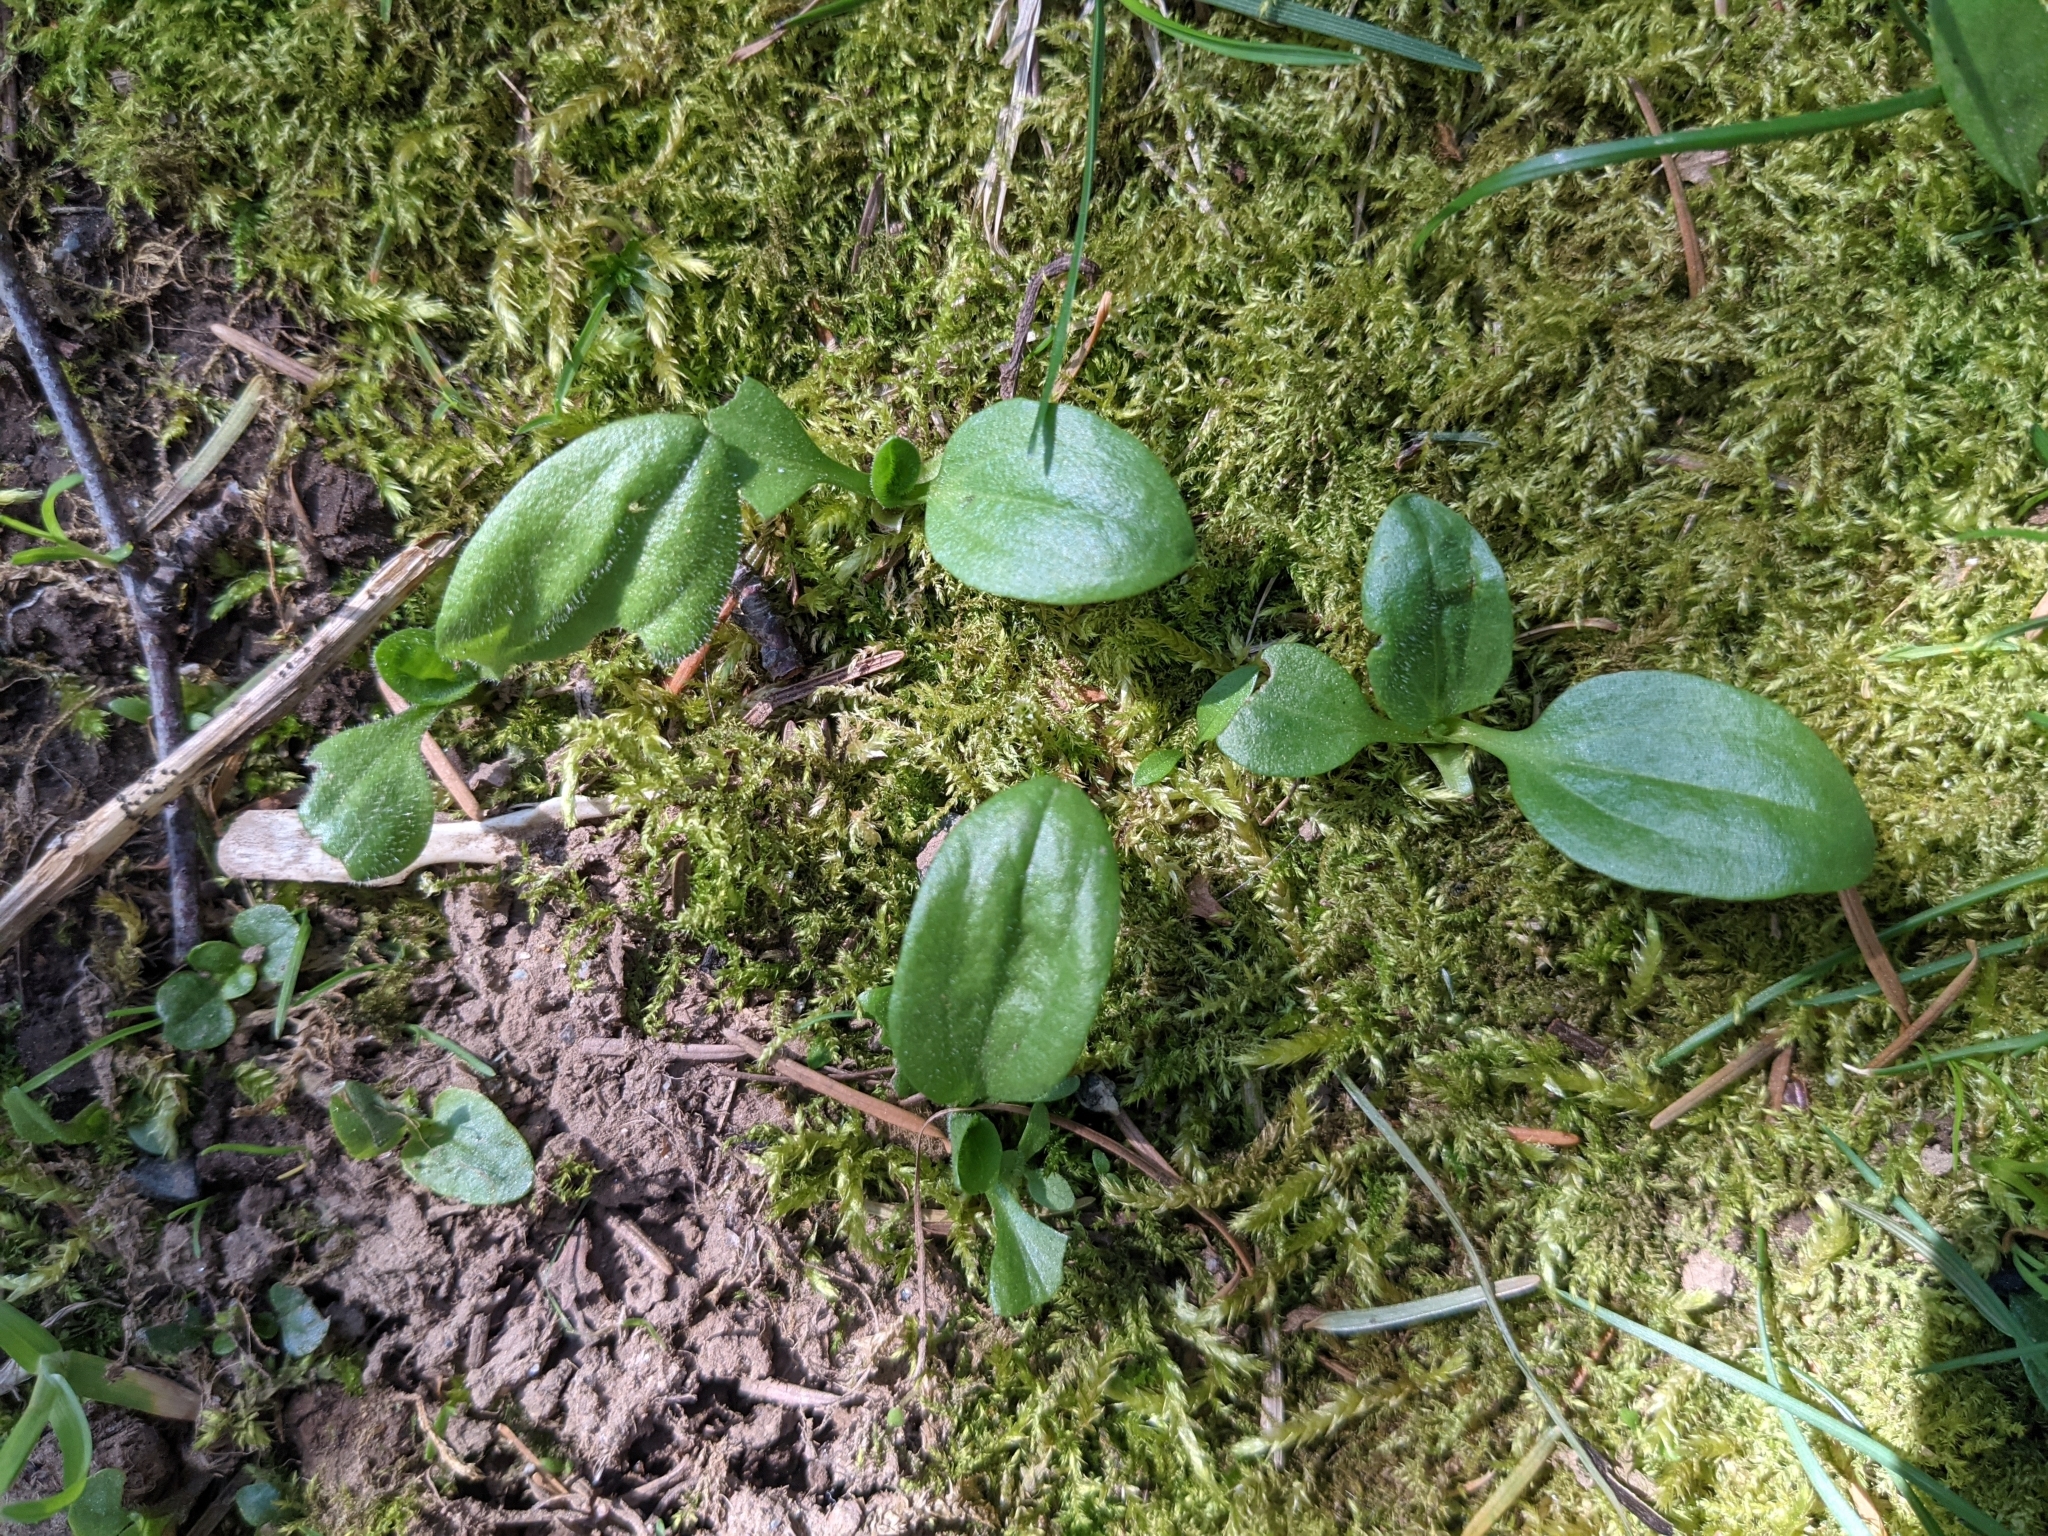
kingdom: Plantae
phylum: Tracheophyta
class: Magnoliopsida
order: Caryophyllales
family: Montiaceae
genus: Claytonia
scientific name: Claytonia sibirica
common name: Pink purslane
